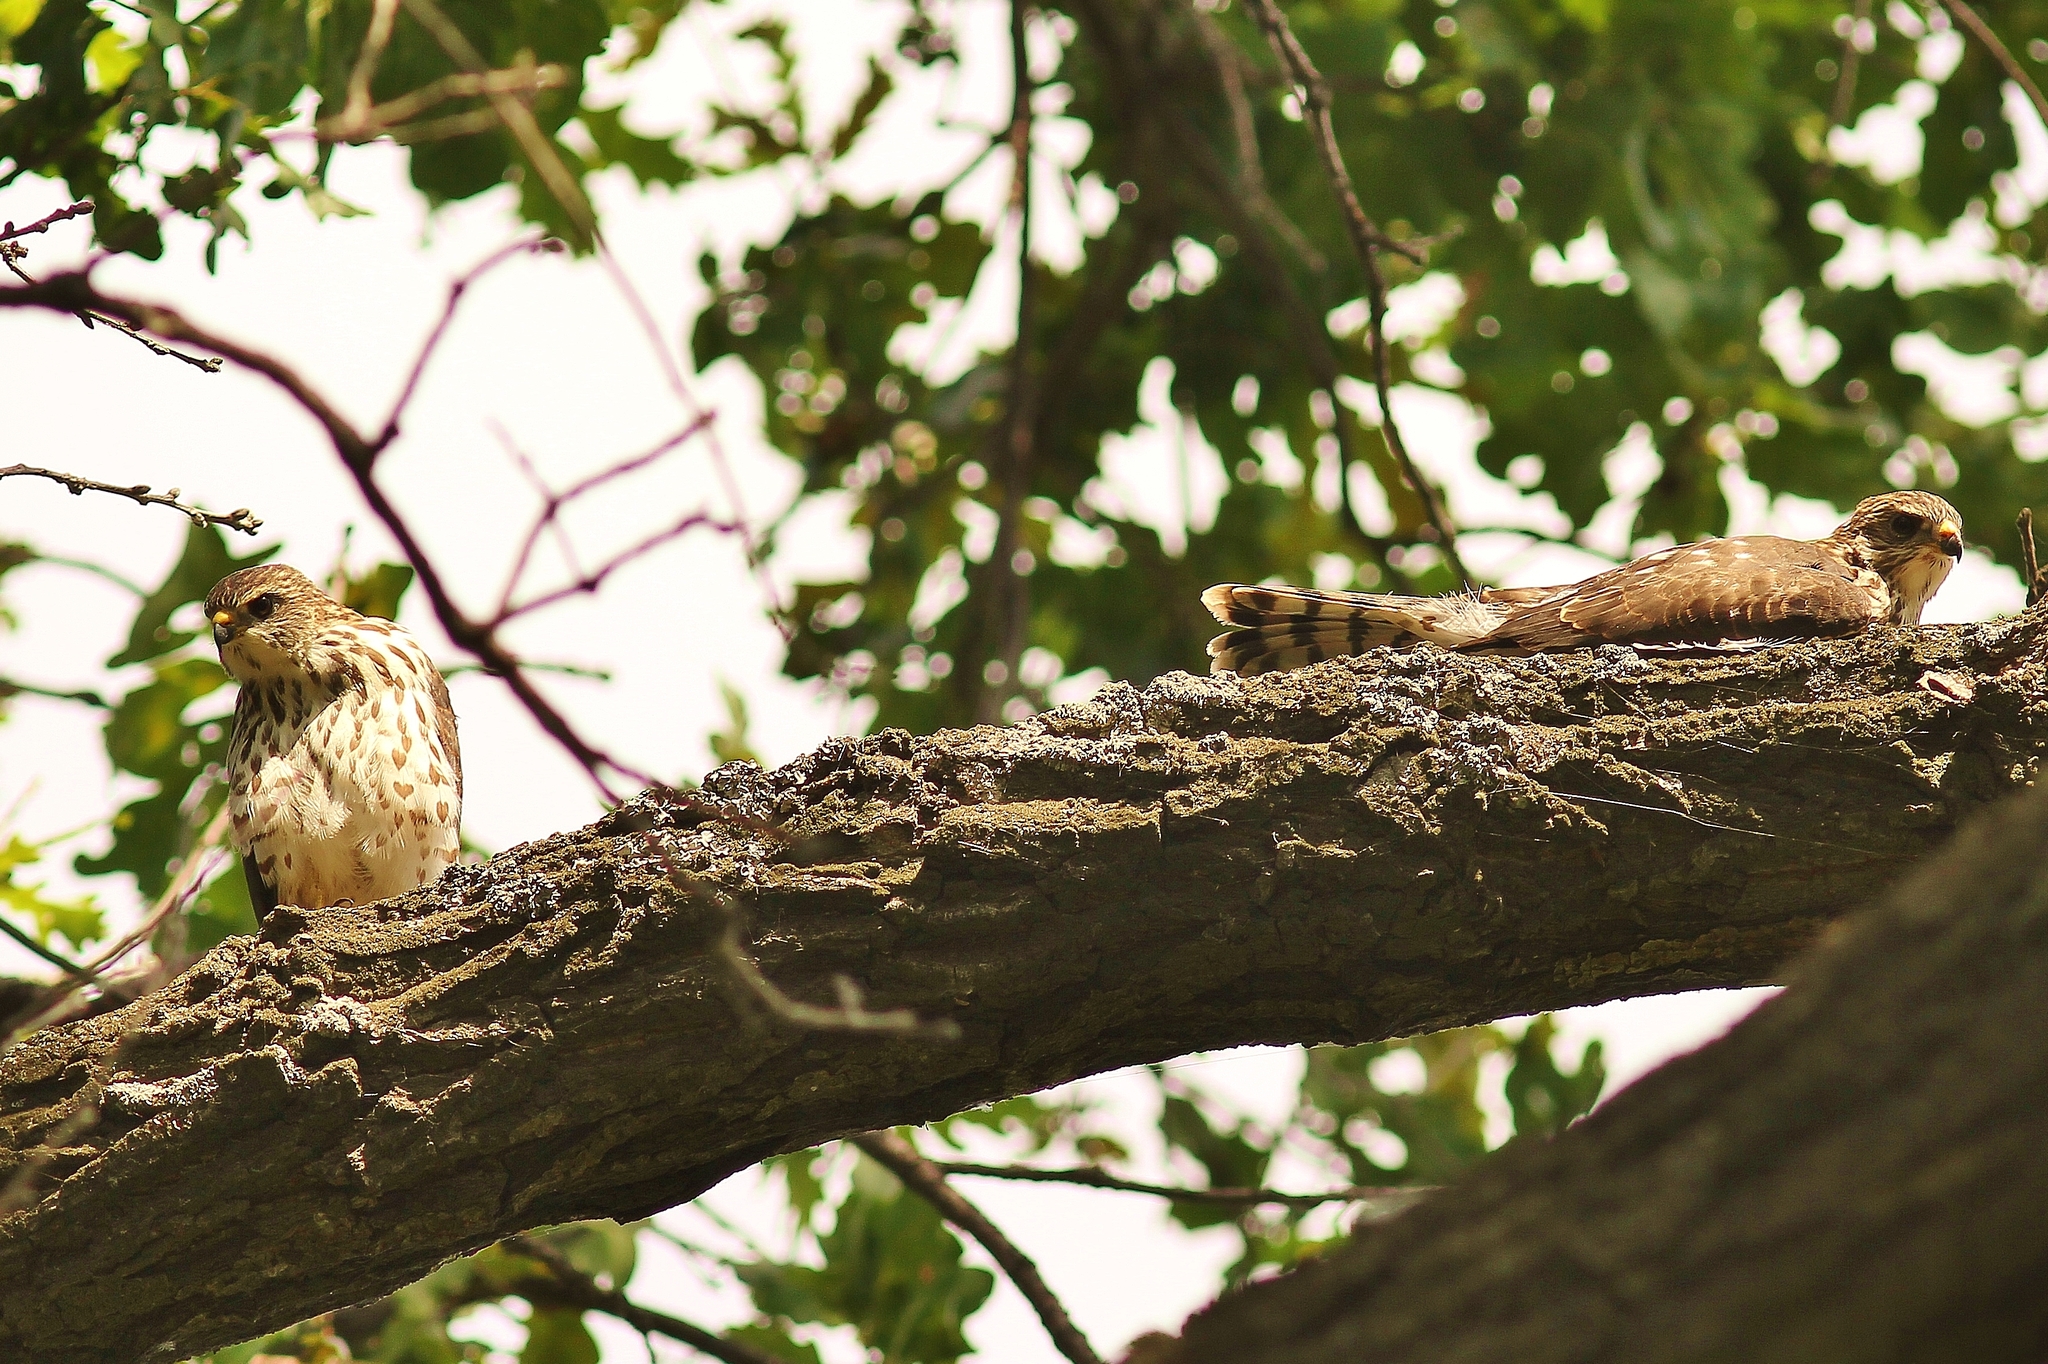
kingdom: Animalia
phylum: Chordata
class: Aves
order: Accipitriformes
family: Accipitridae
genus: Accipiter
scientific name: Accipiter brevipes
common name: Levant sparrowhawk
